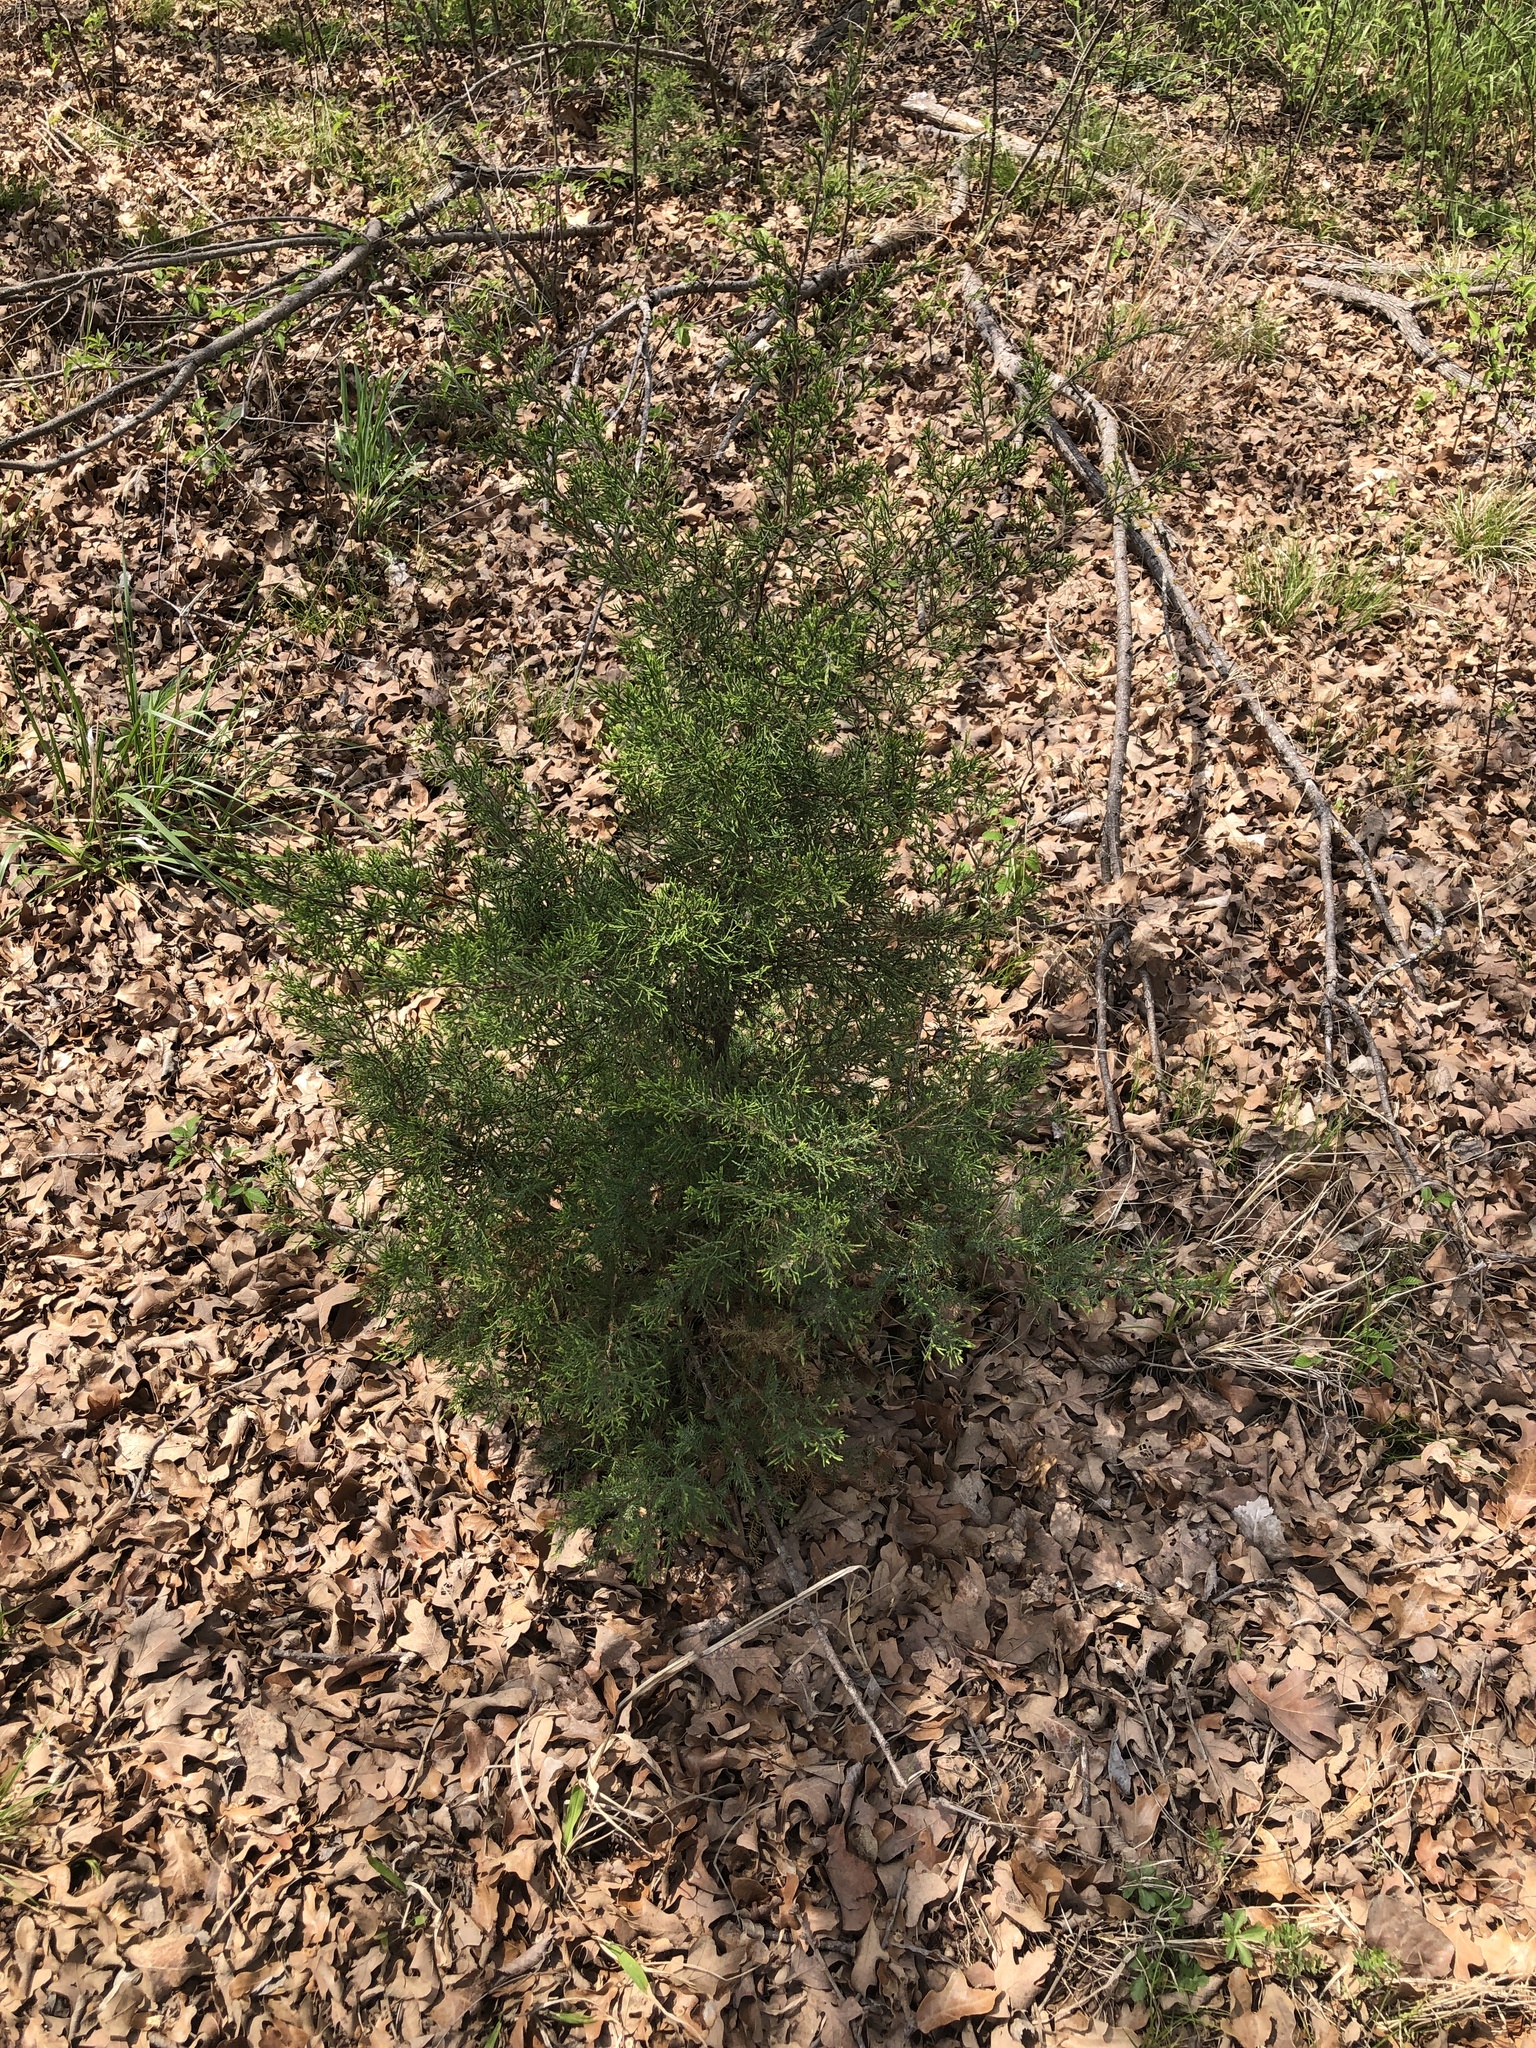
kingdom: Plantae
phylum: Tracheophyta
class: Pinopsida
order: Pinales
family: Cupressaceae
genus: Juniperus
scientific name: Juniperus virginiana
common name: Red juniper
